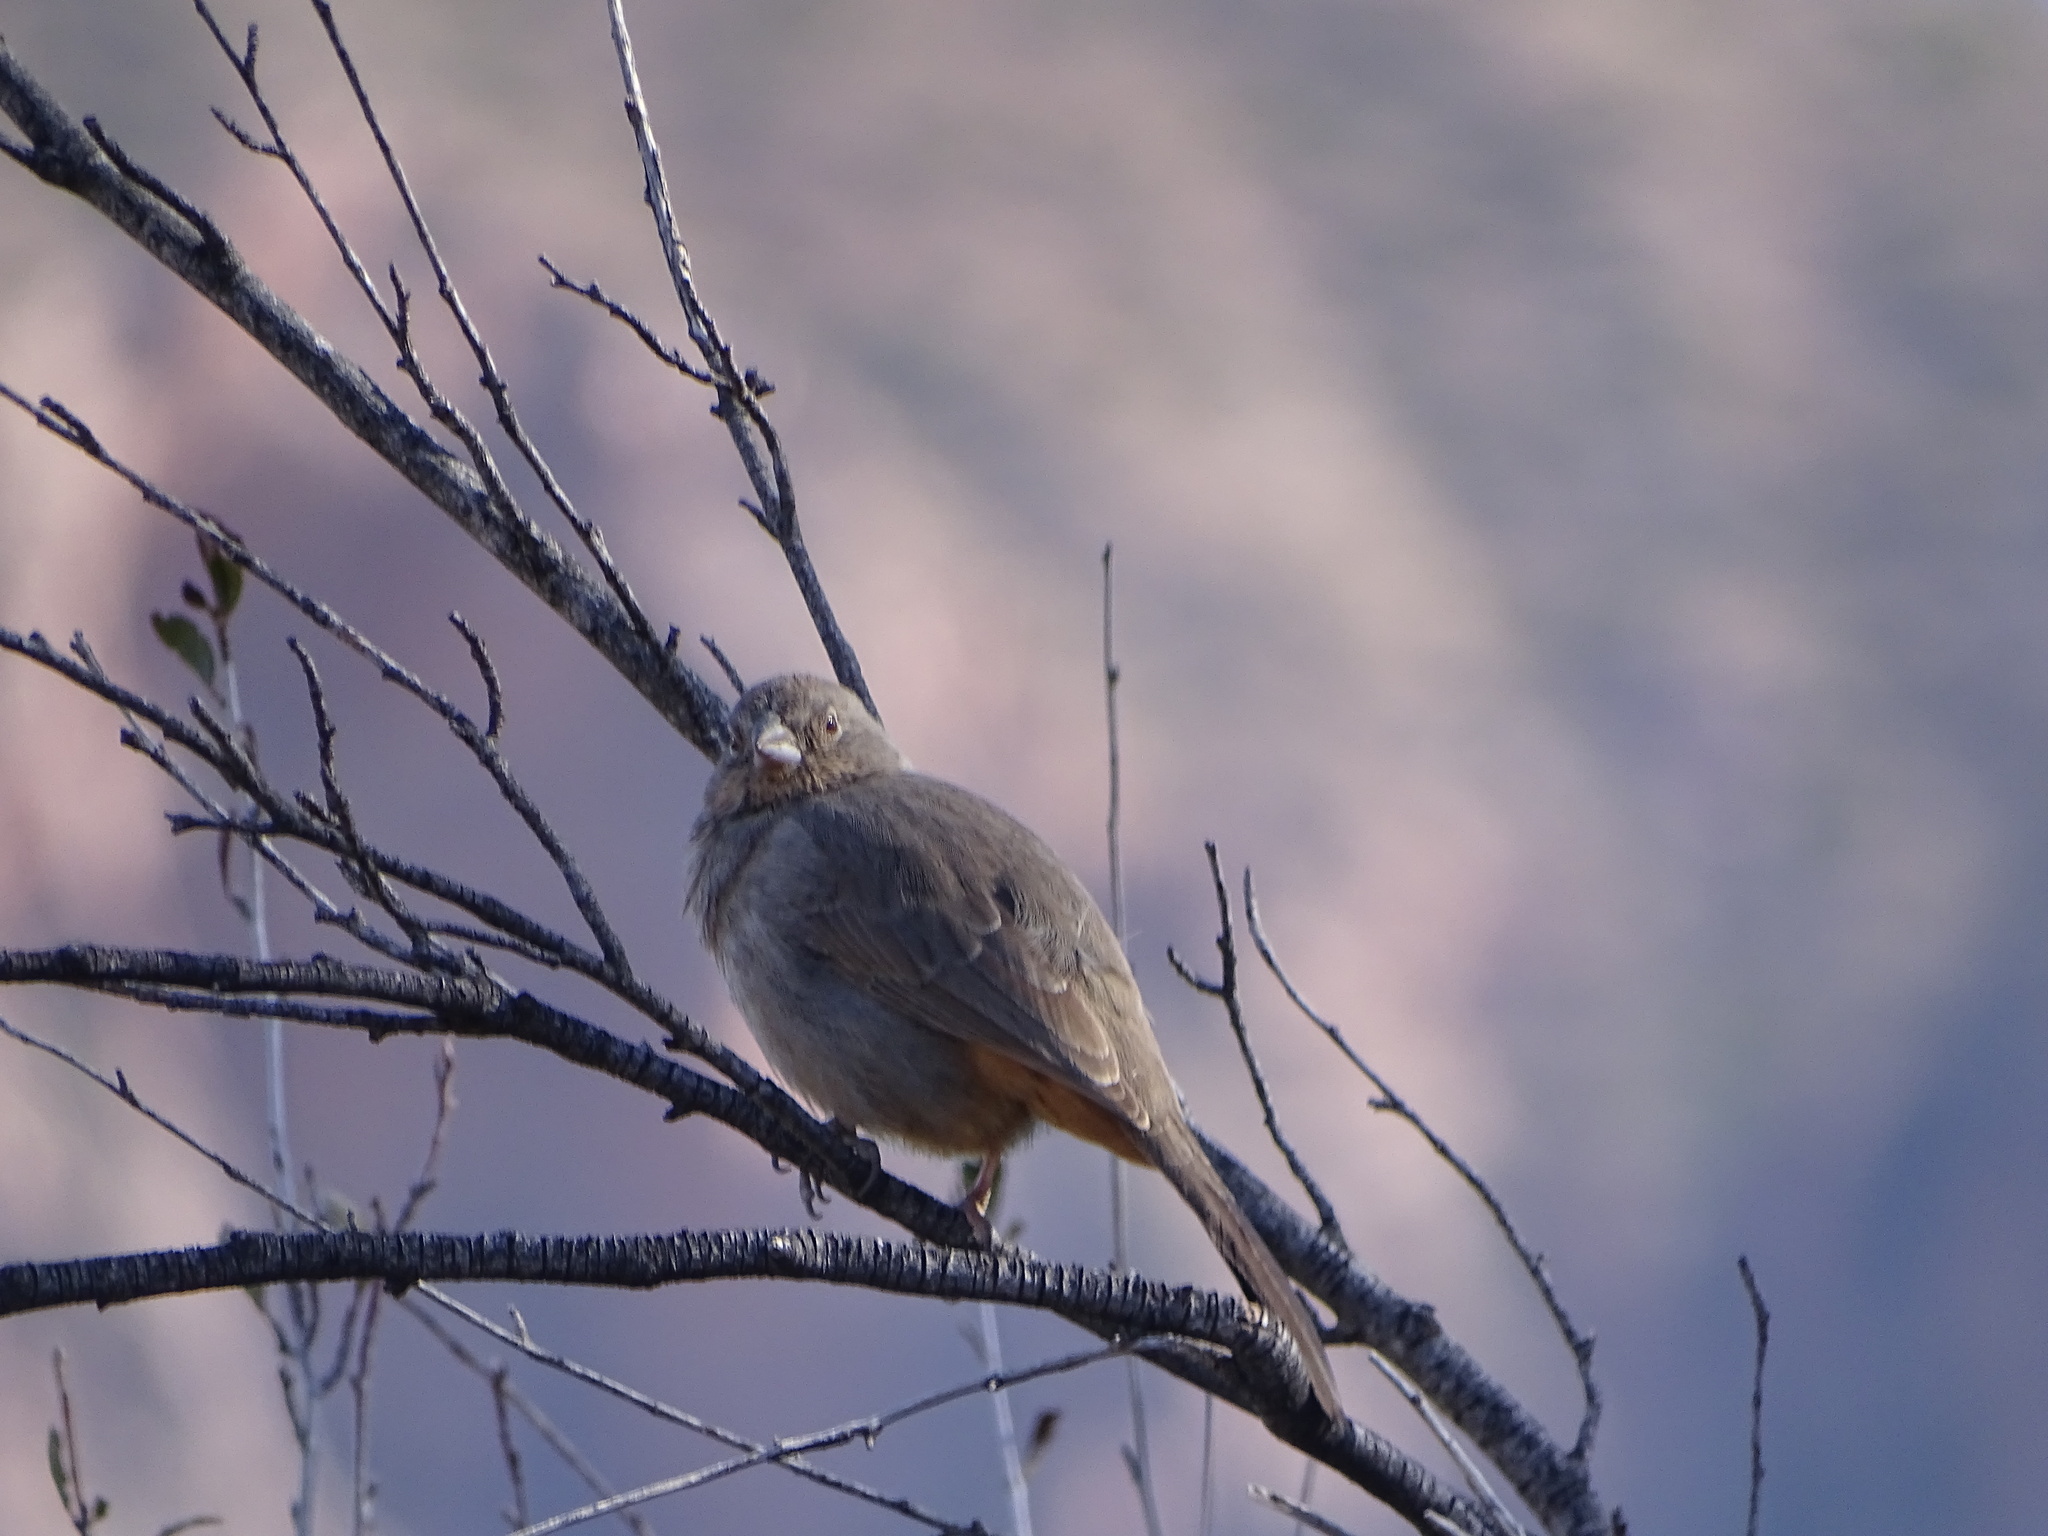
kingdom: Animalia
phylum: Chordata
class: Aves
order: Passeriformes
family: Passerellidae
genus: Melozone
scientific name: Melozone fusca
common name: Canyon towhee
